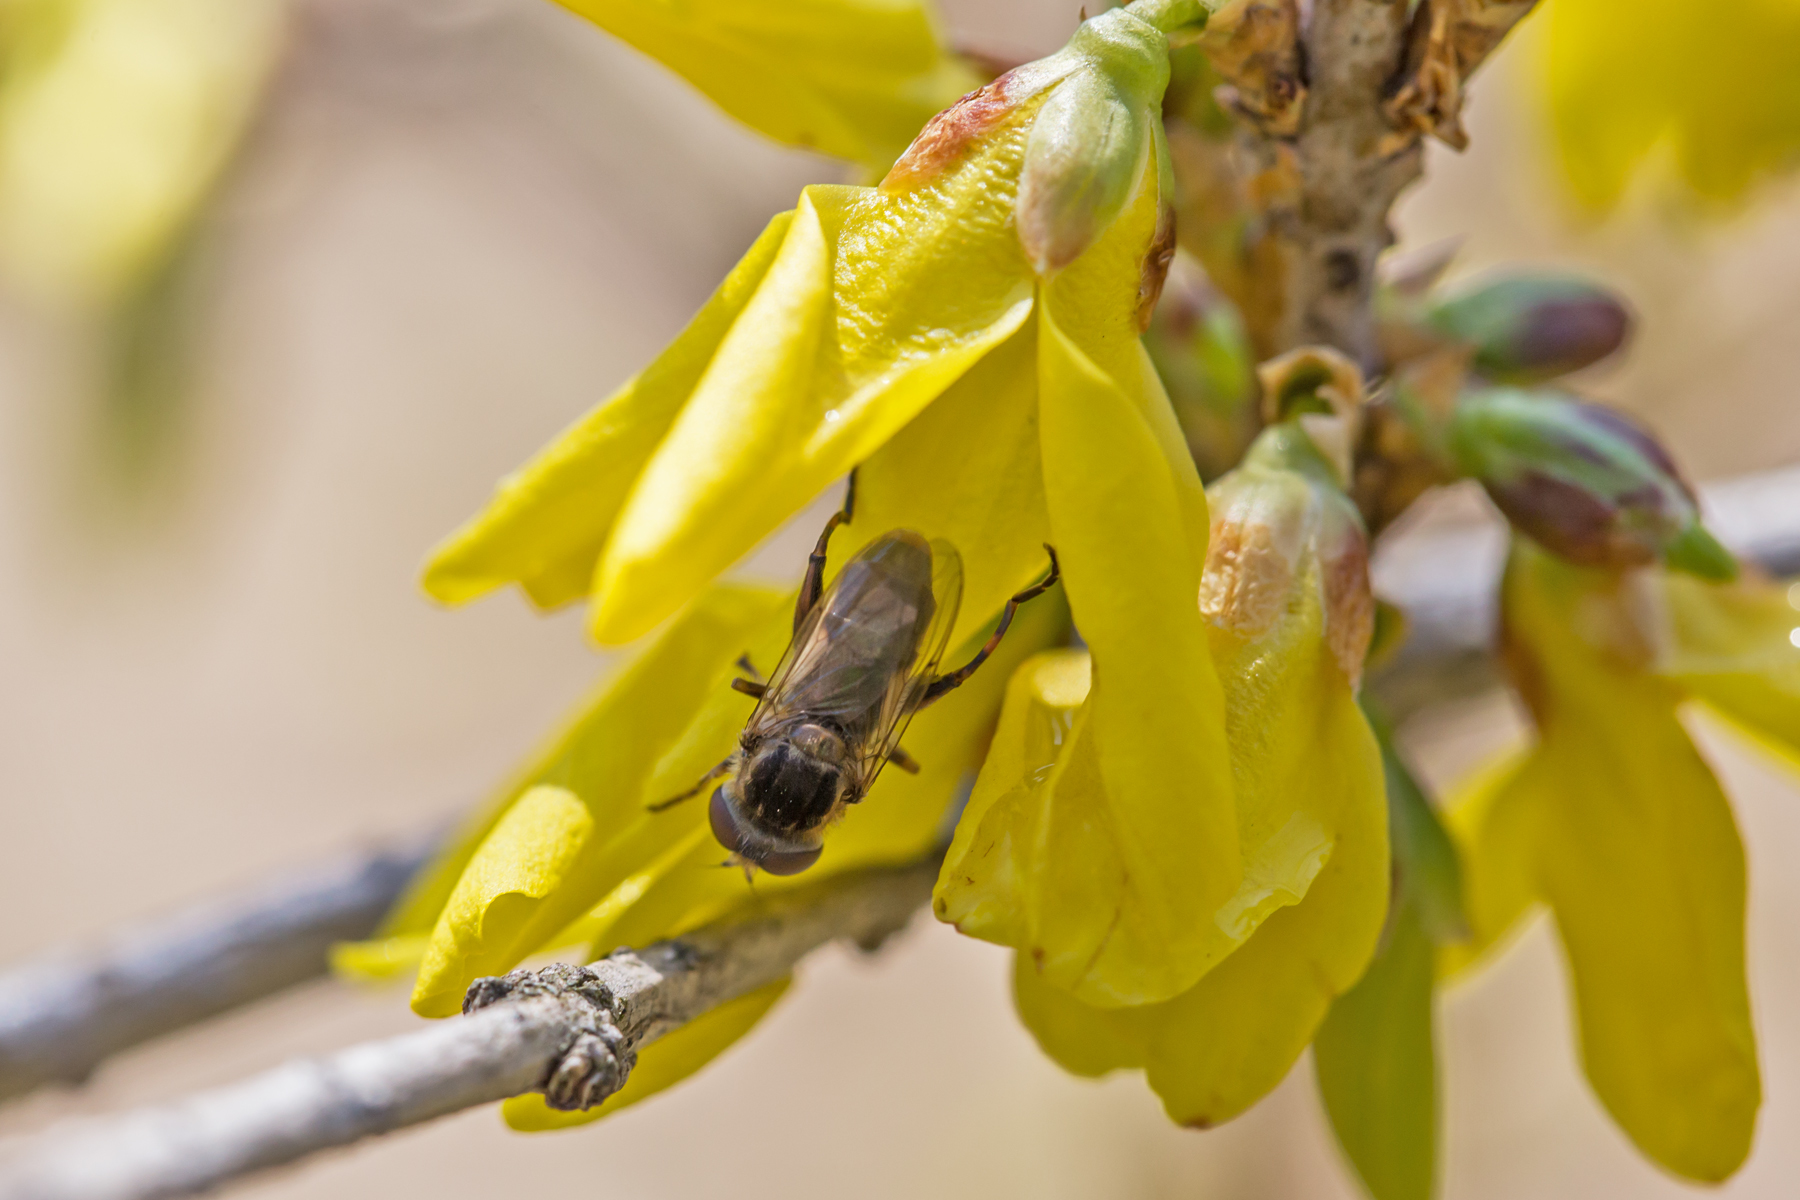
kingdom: Animalia
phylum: Arthropoda
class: Insecta
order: Diptera
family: Syrphidae
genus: Anasimyia
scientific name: Anasimyia bilinearis
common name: Two-lined swamp fly
